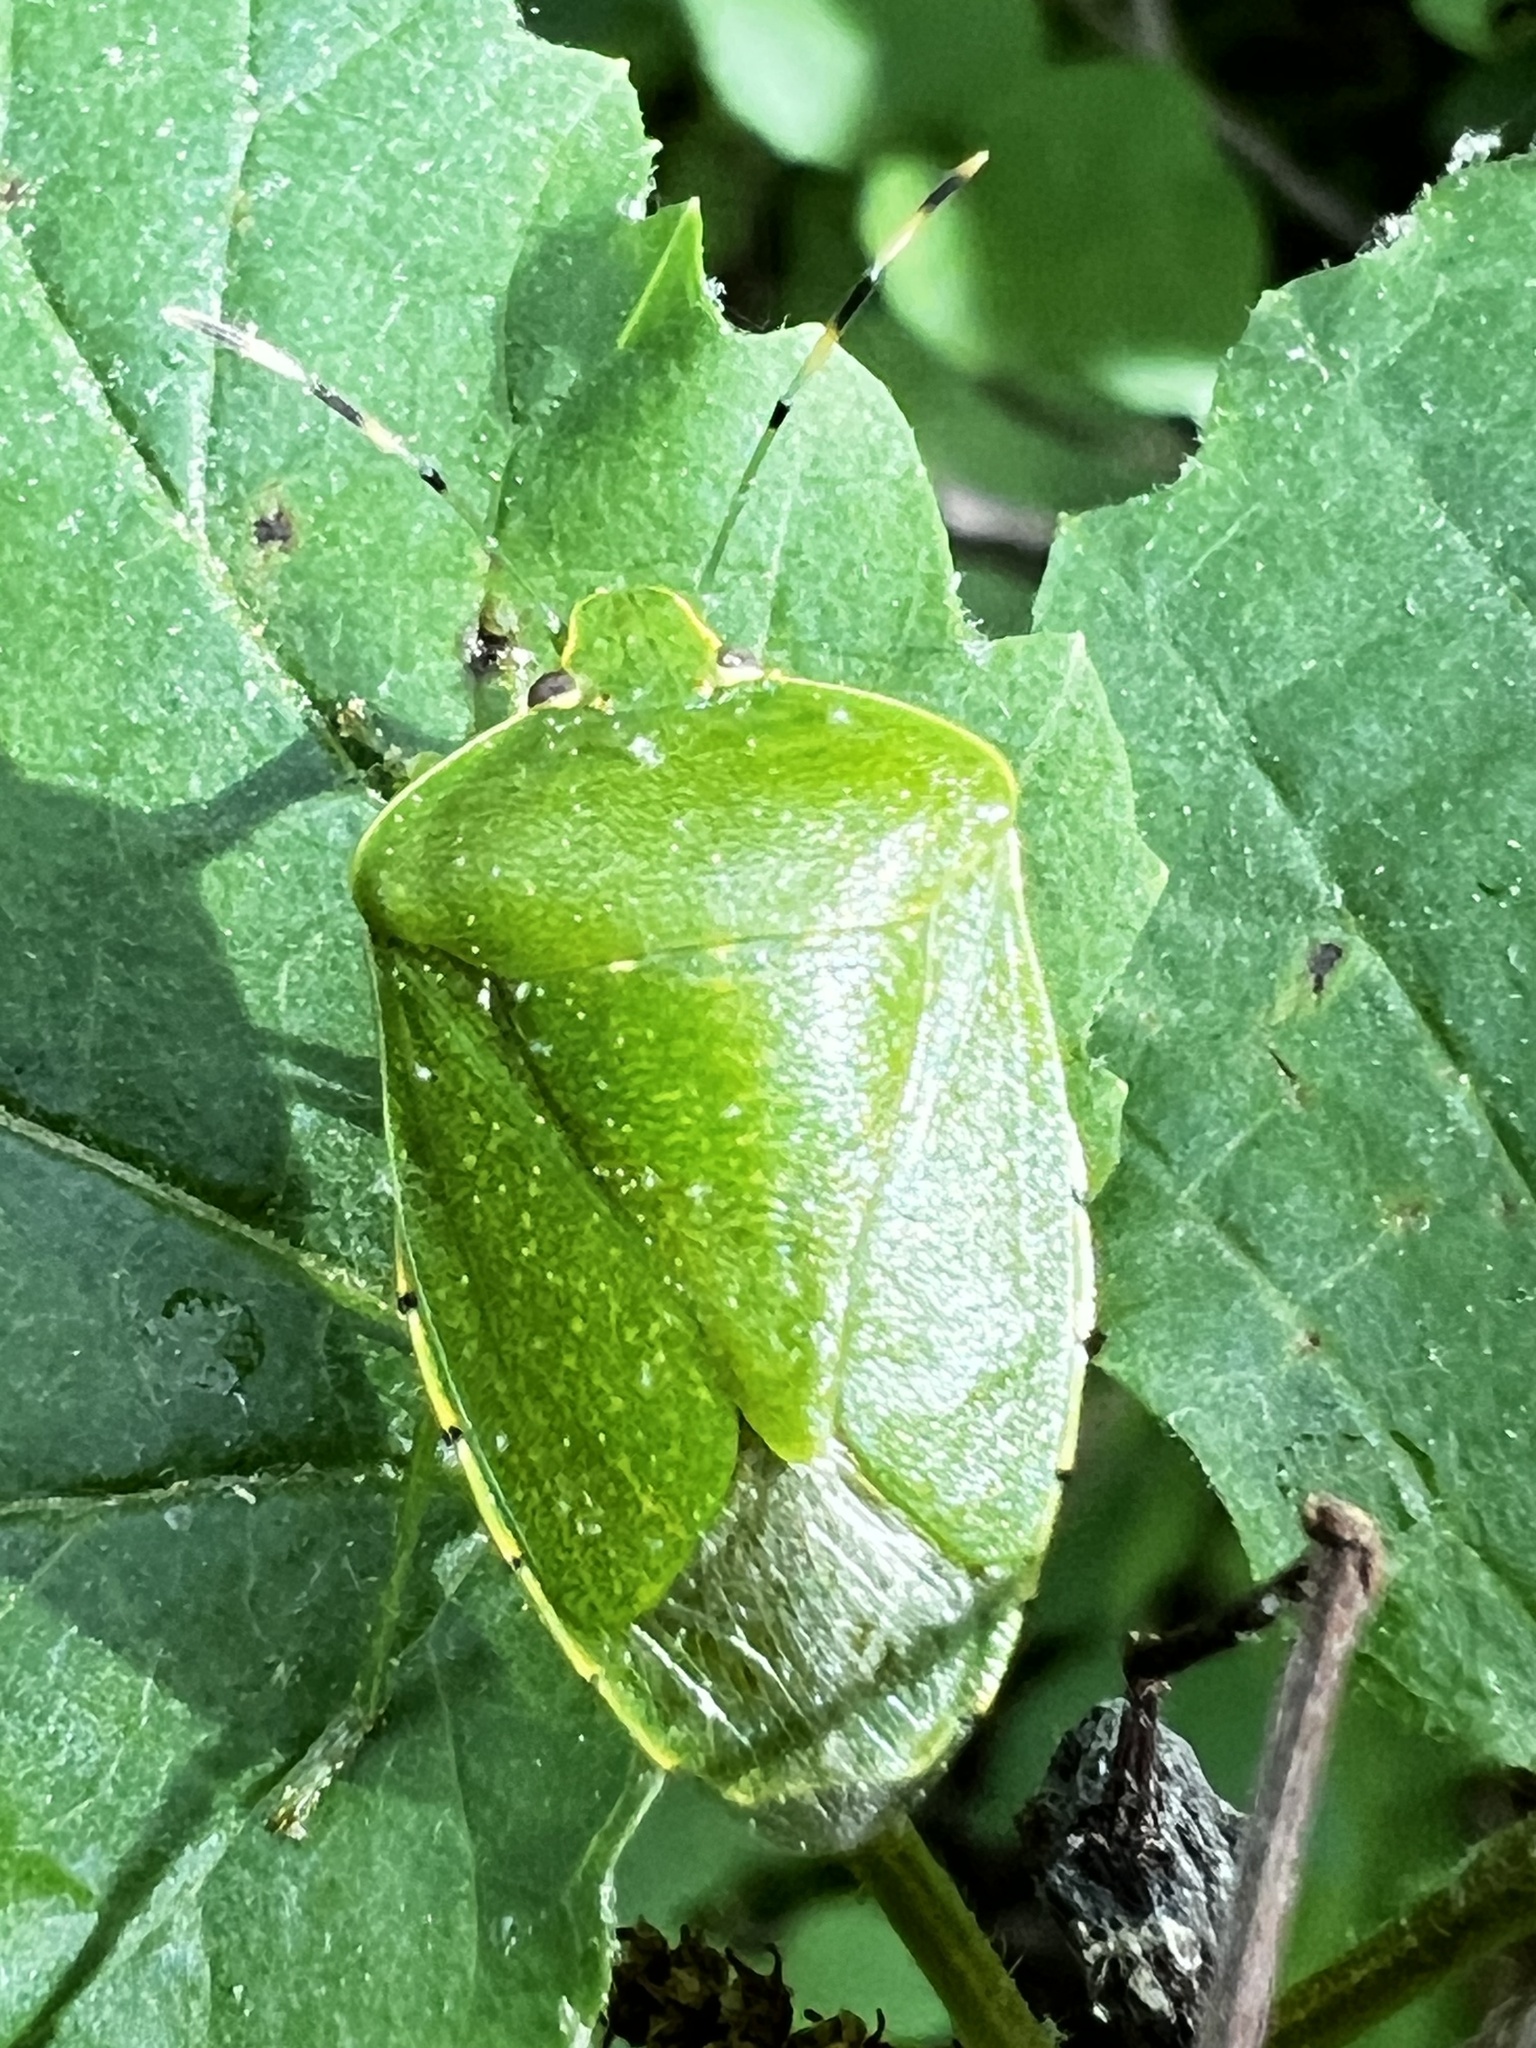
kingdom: Animalia
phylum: Arthropoda
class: Insecta
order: Hemiptera
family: Pentatomidae
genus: Chinavia
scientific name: Chinavia hilaris
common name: Green stink bug
